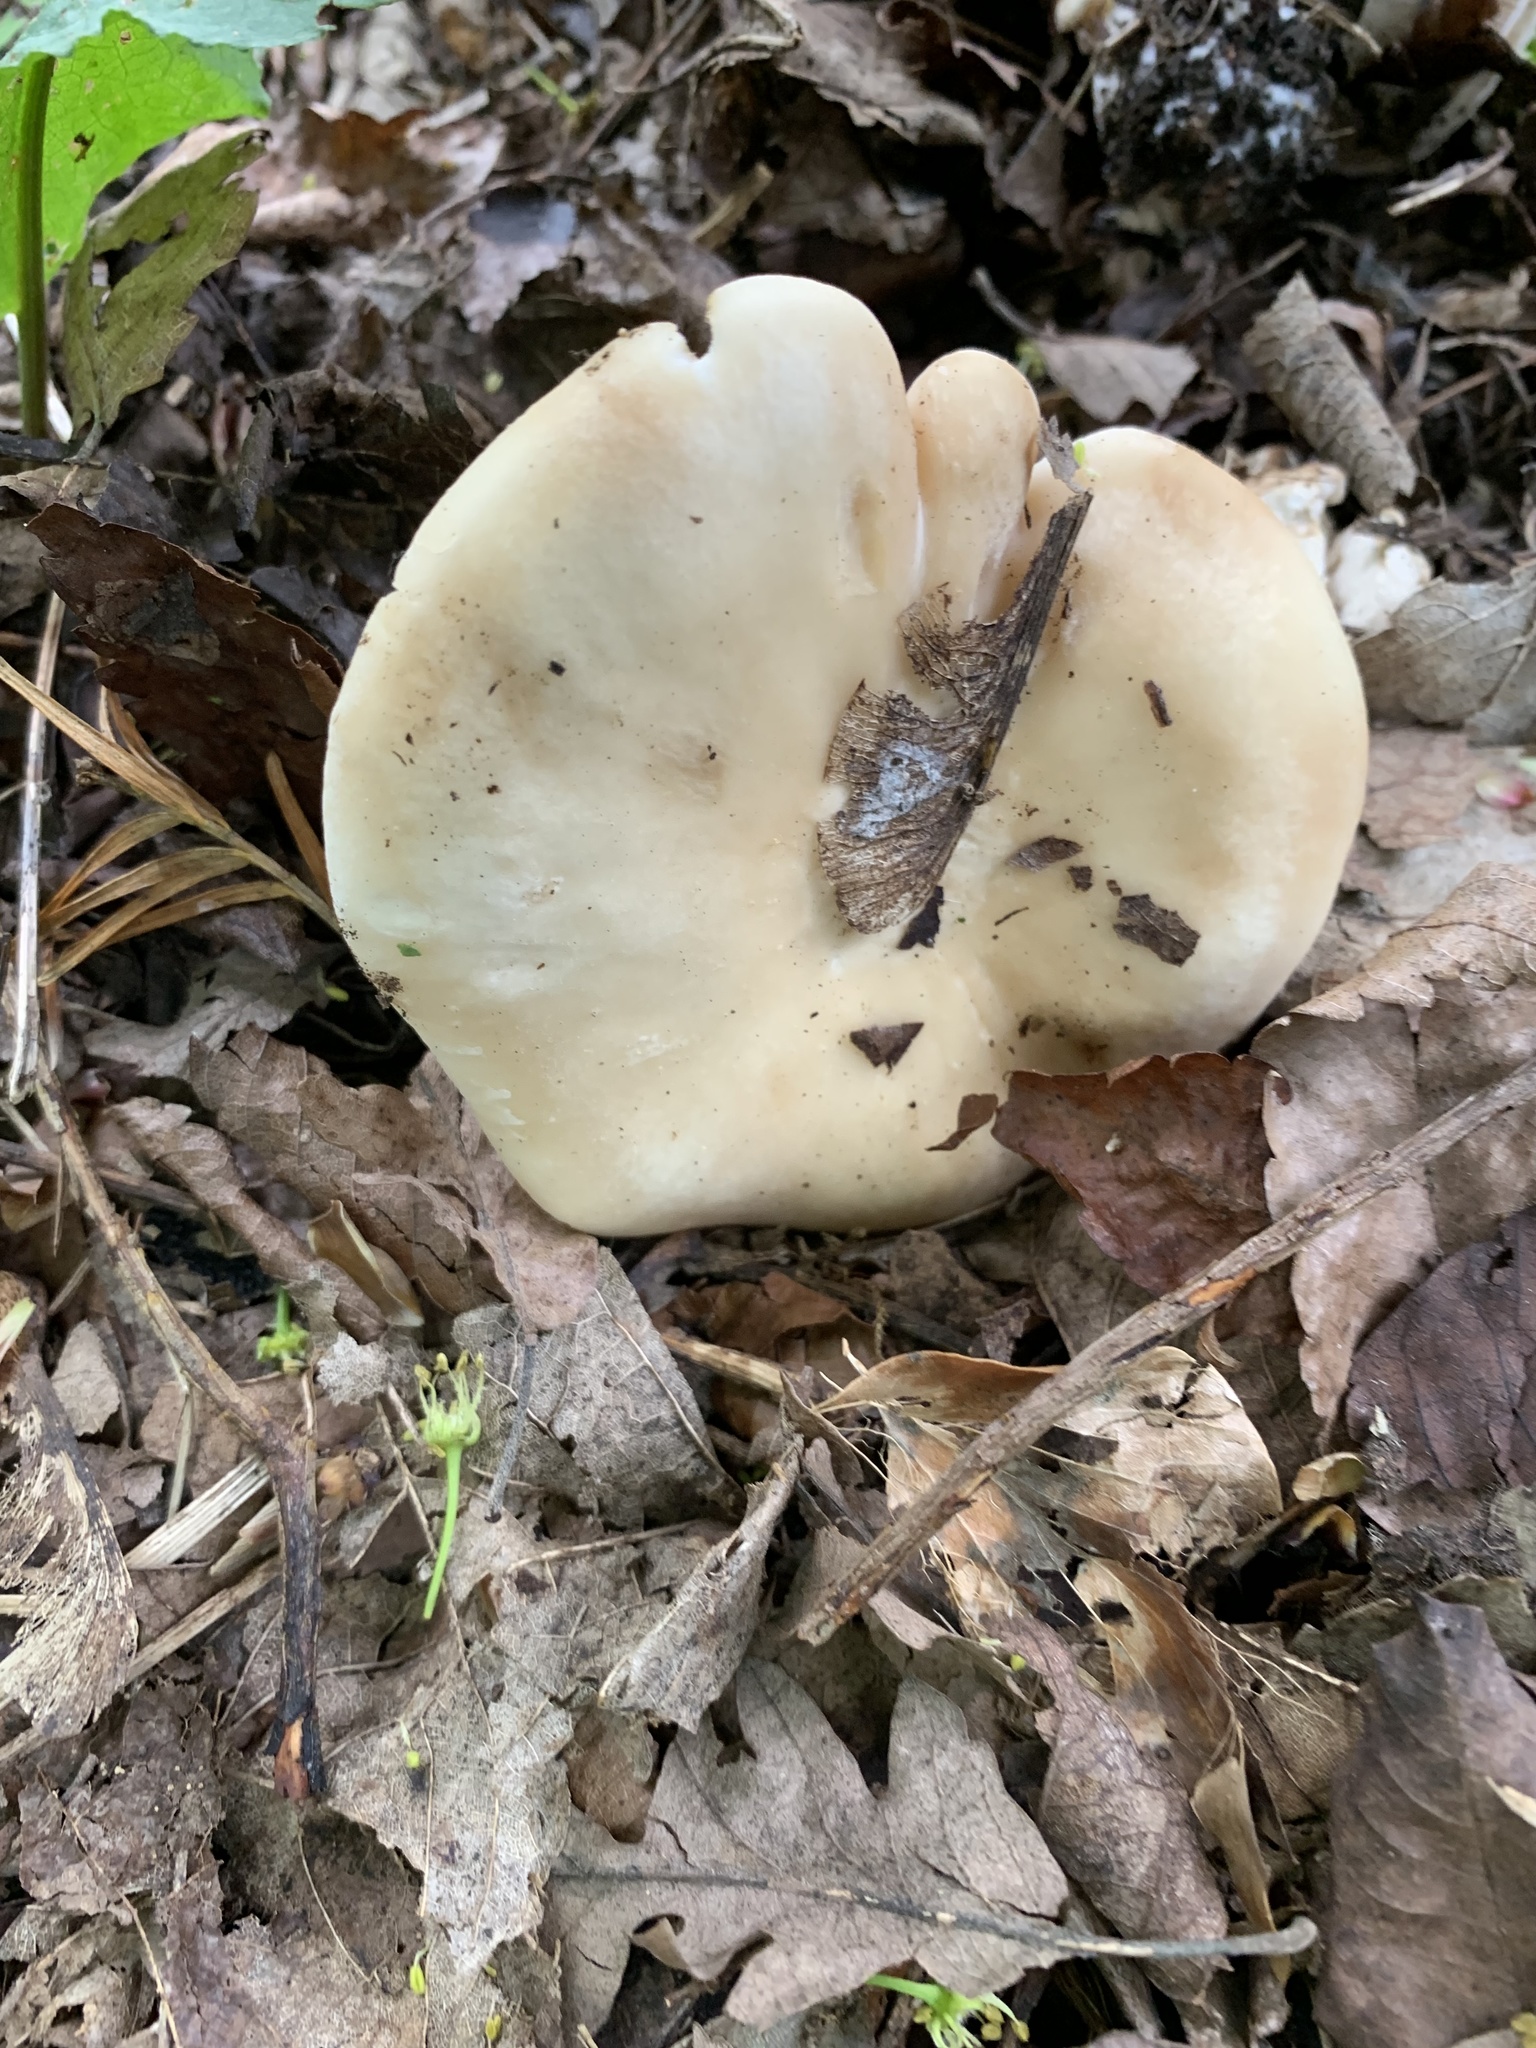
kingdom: Fungi
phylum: Basidiomycota
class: Agaricomycetes
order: Agaricales
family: Lyophyllaceae
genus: Calocybe
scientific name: Calocybe gambosa
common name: St. george's mushroom
